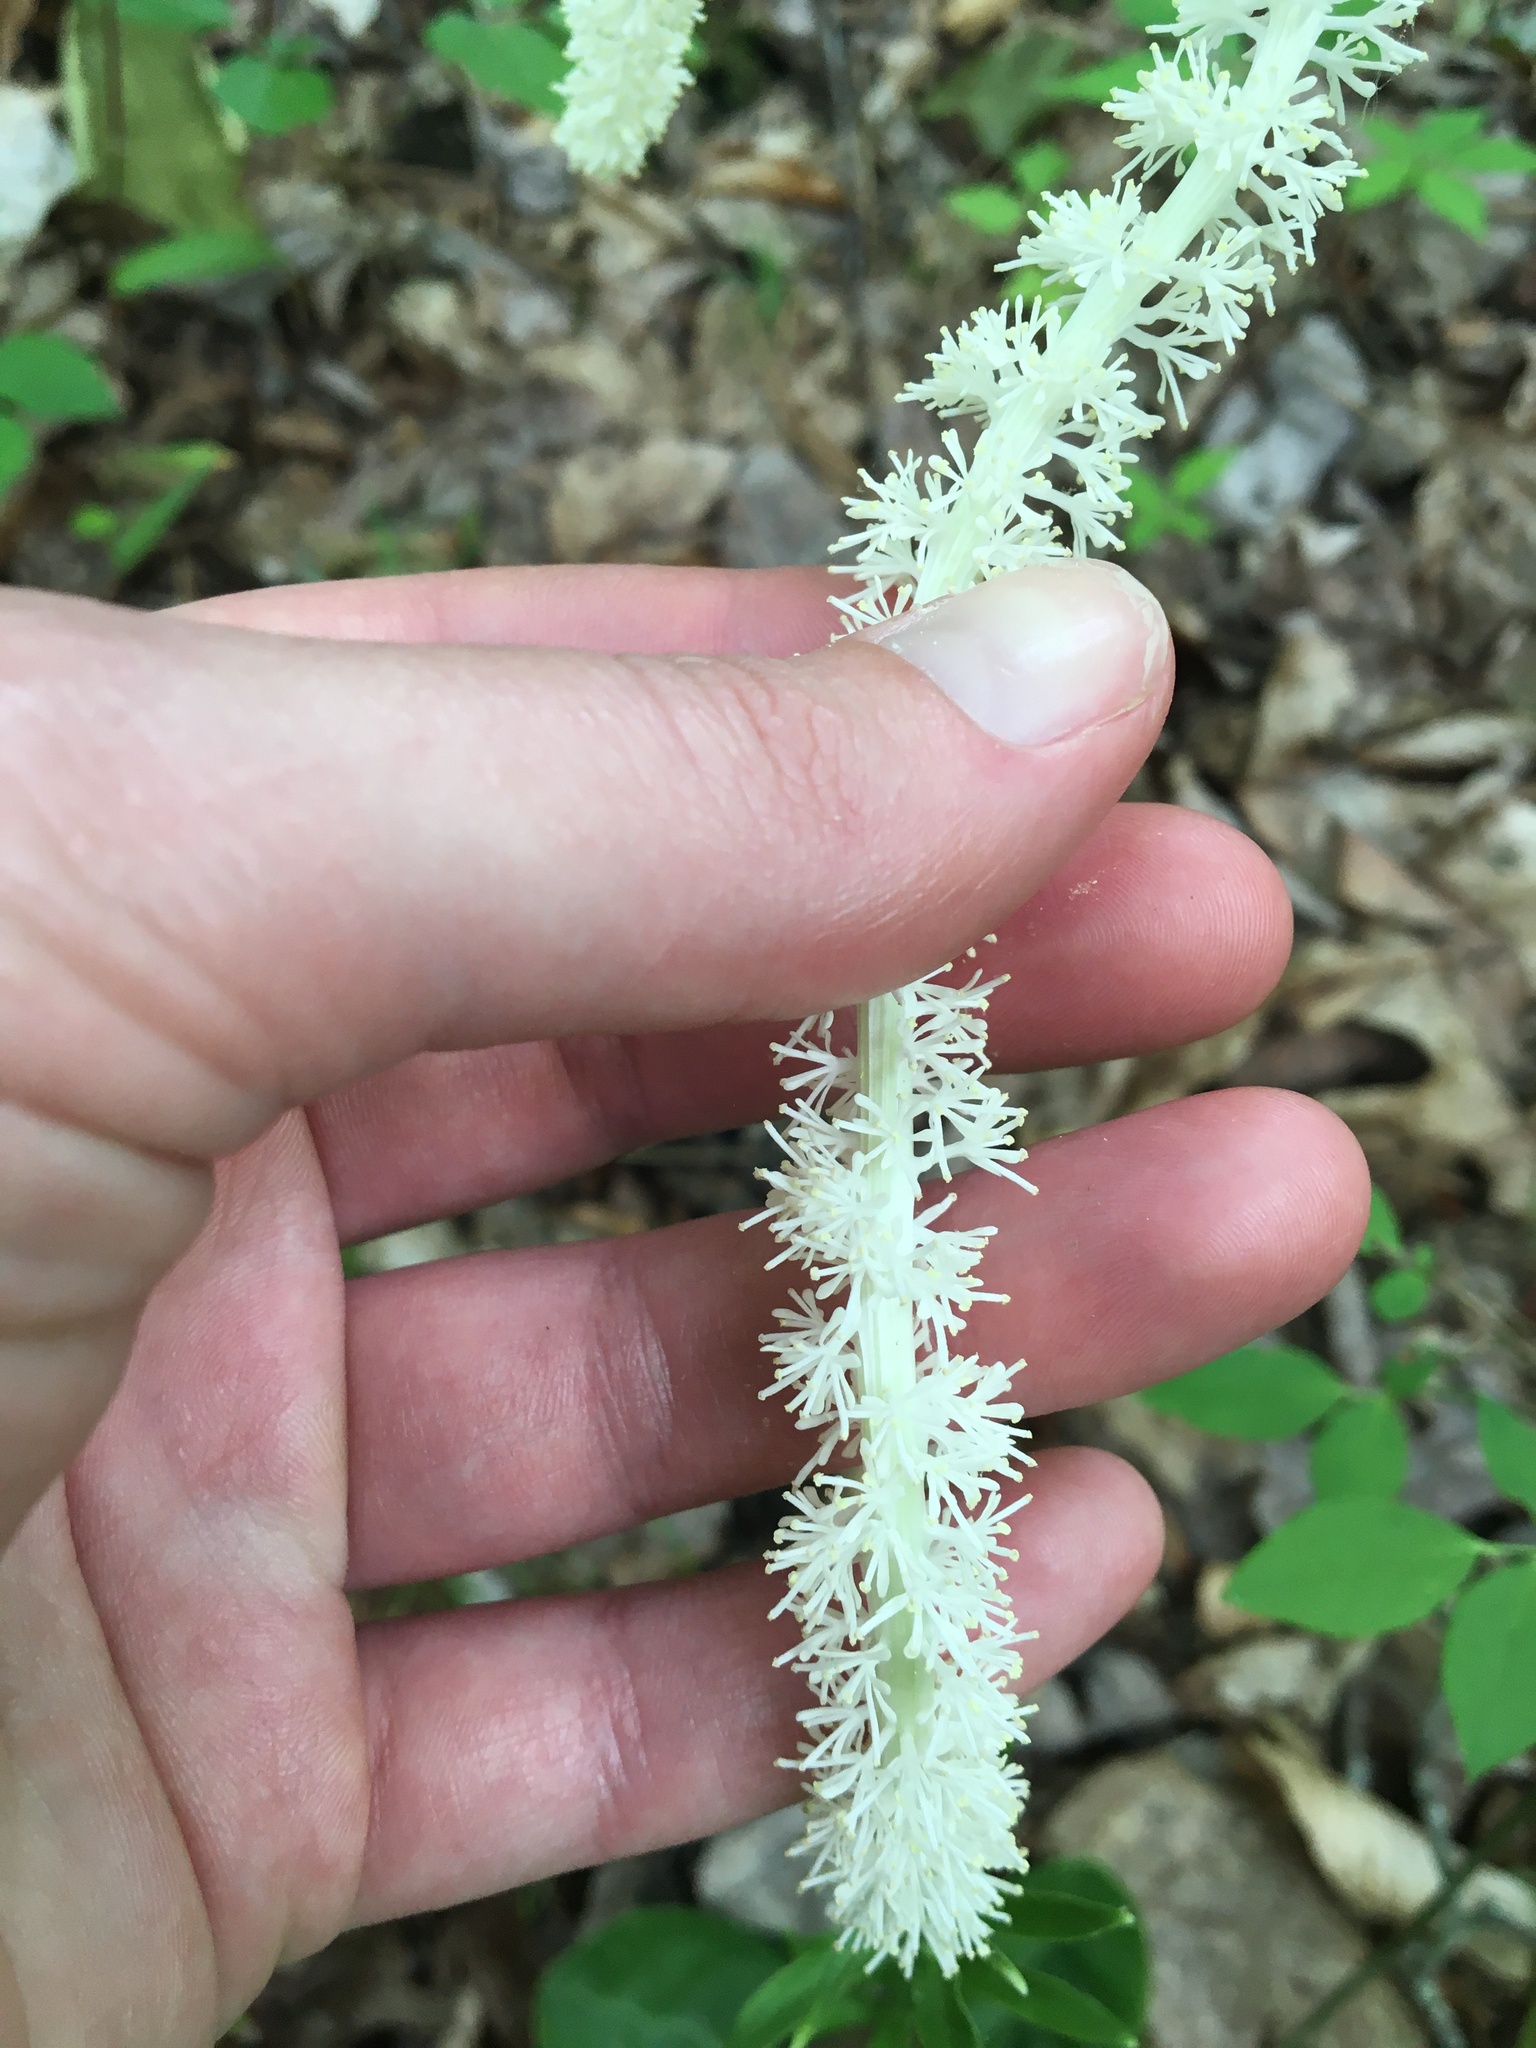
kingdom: Plantae
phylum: Tracheophyta
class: Liliopsida
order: Liliales
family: Melanthiaceae
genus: Chamaelirium
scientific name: Chamaelirium luteum
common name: Fairy-wand
